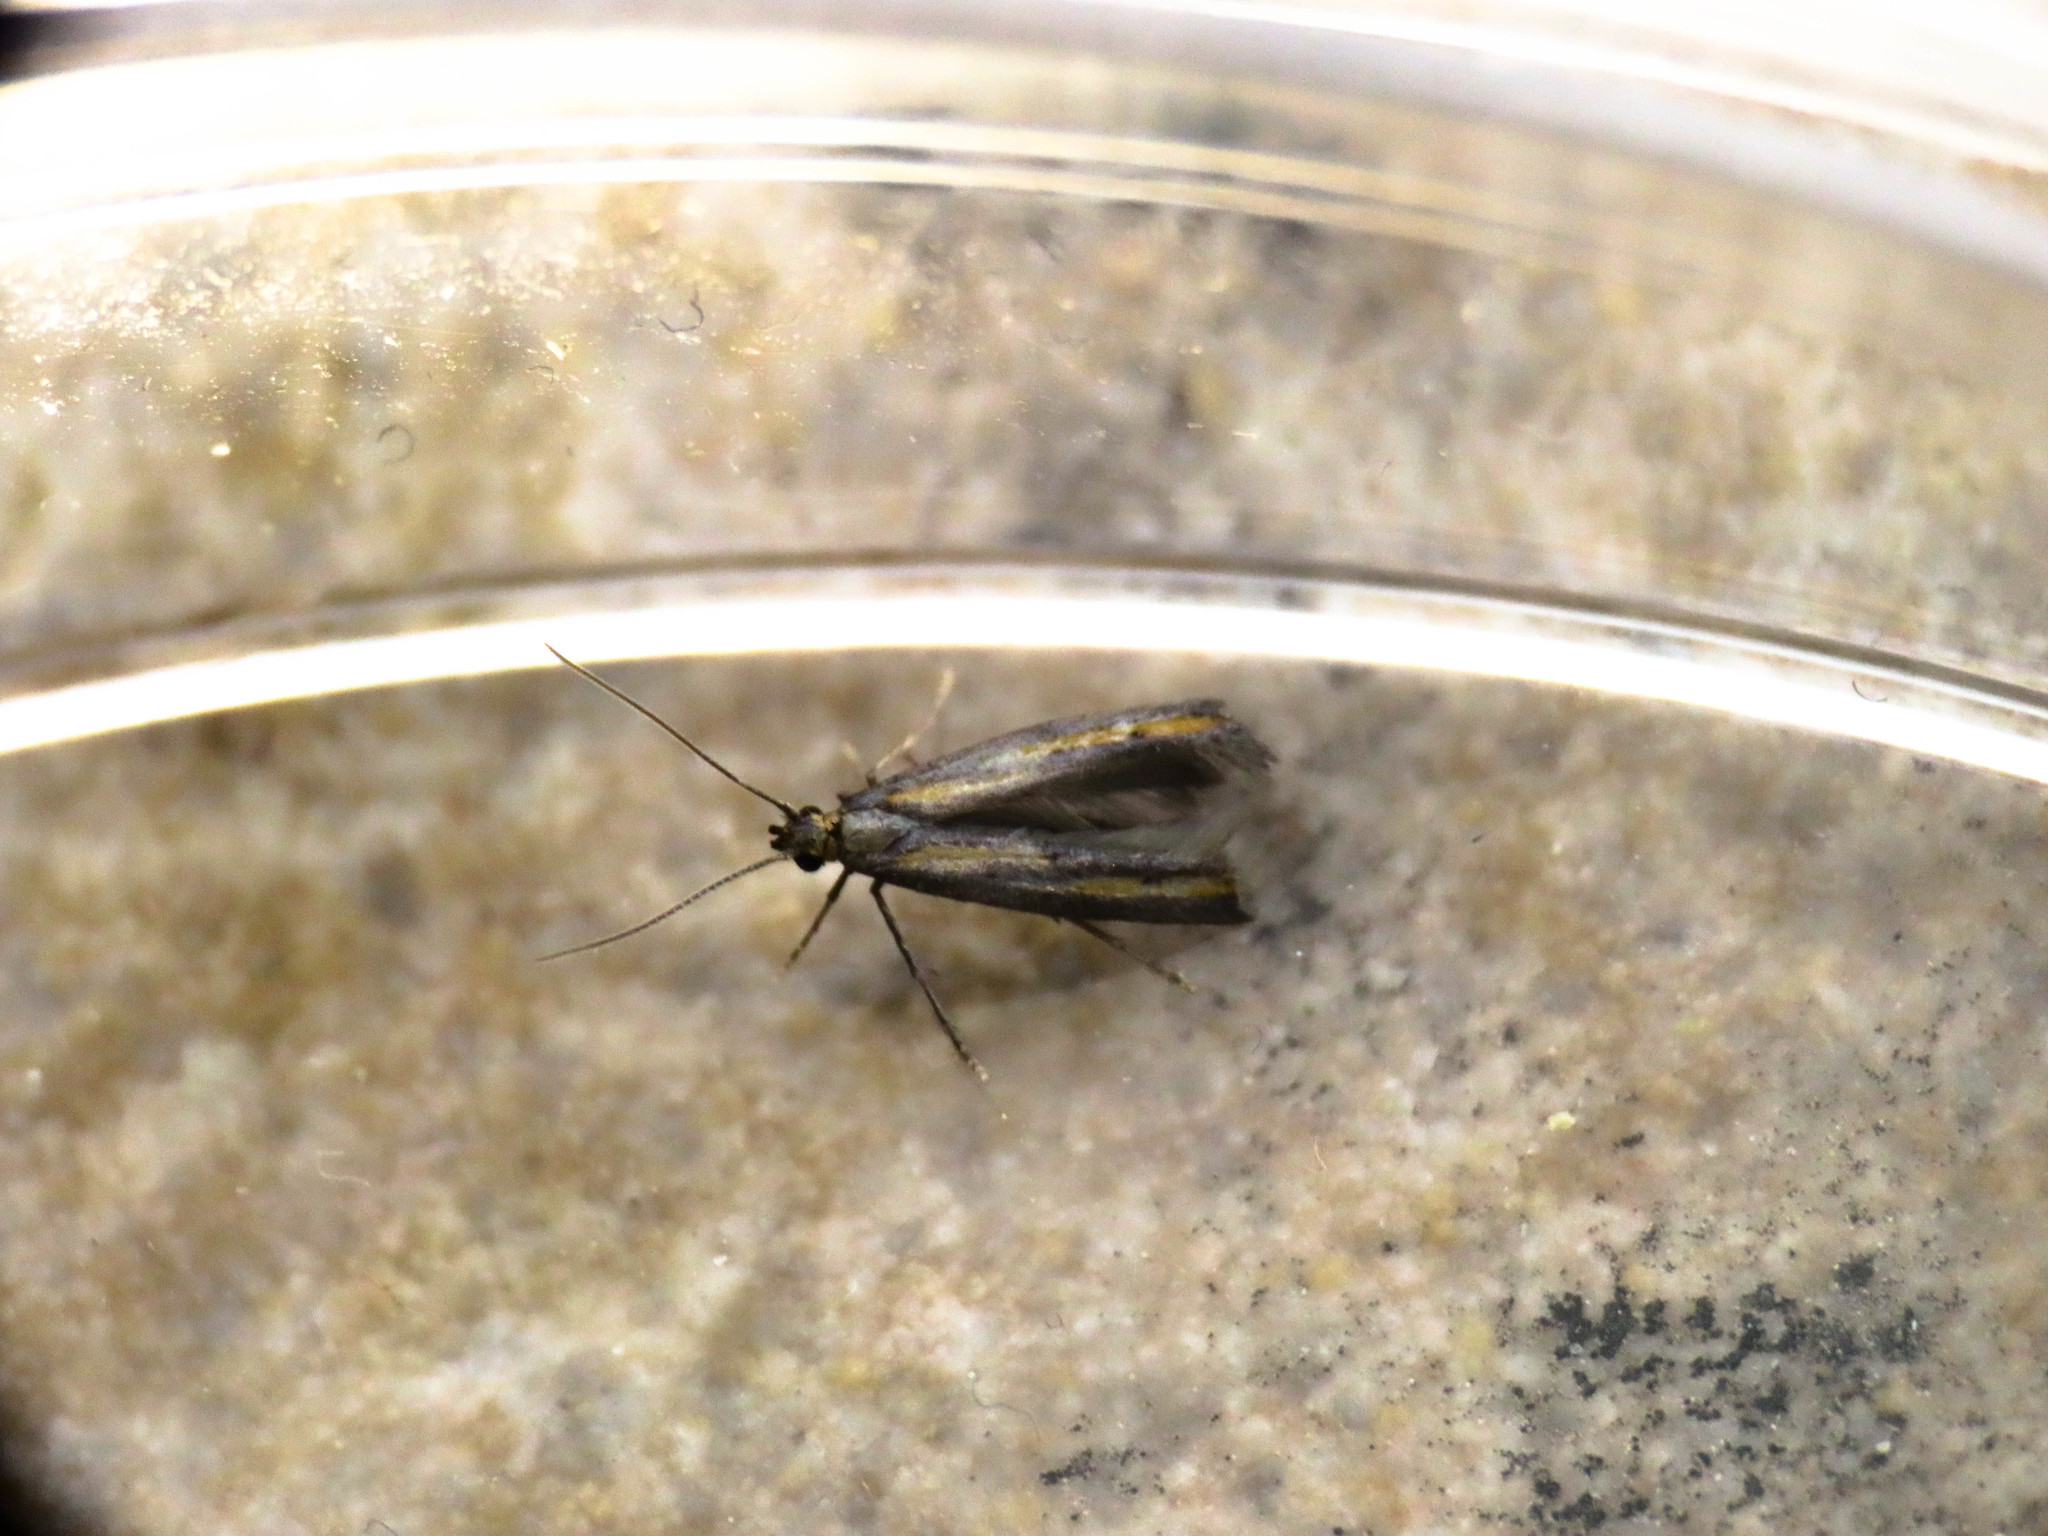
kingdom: Animalia
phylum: Arthropoda
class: Insecta
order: Lepidoptera
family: Epermeniidae
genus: Ochromolopis
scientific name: Ochromolopis ictella
